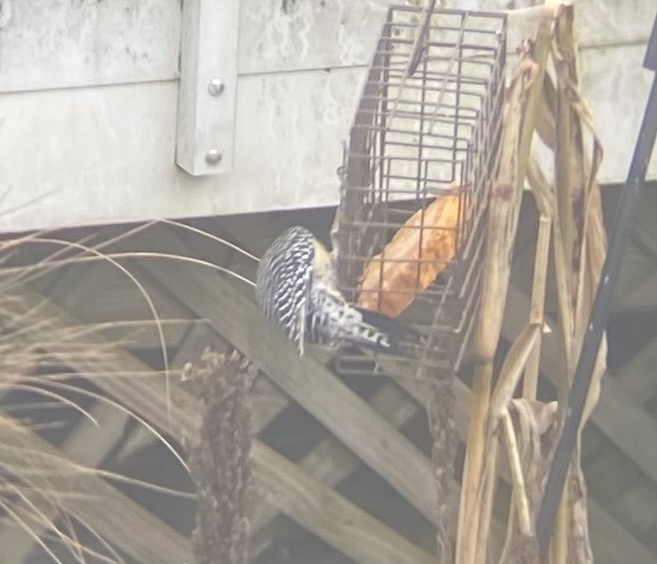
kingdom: Animalia
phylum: Chordata
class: Aves
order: Piciformes
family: Picidae
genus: Melanerpes
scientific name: Melanerpes carolinus
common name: Red-bellied woodpecker
